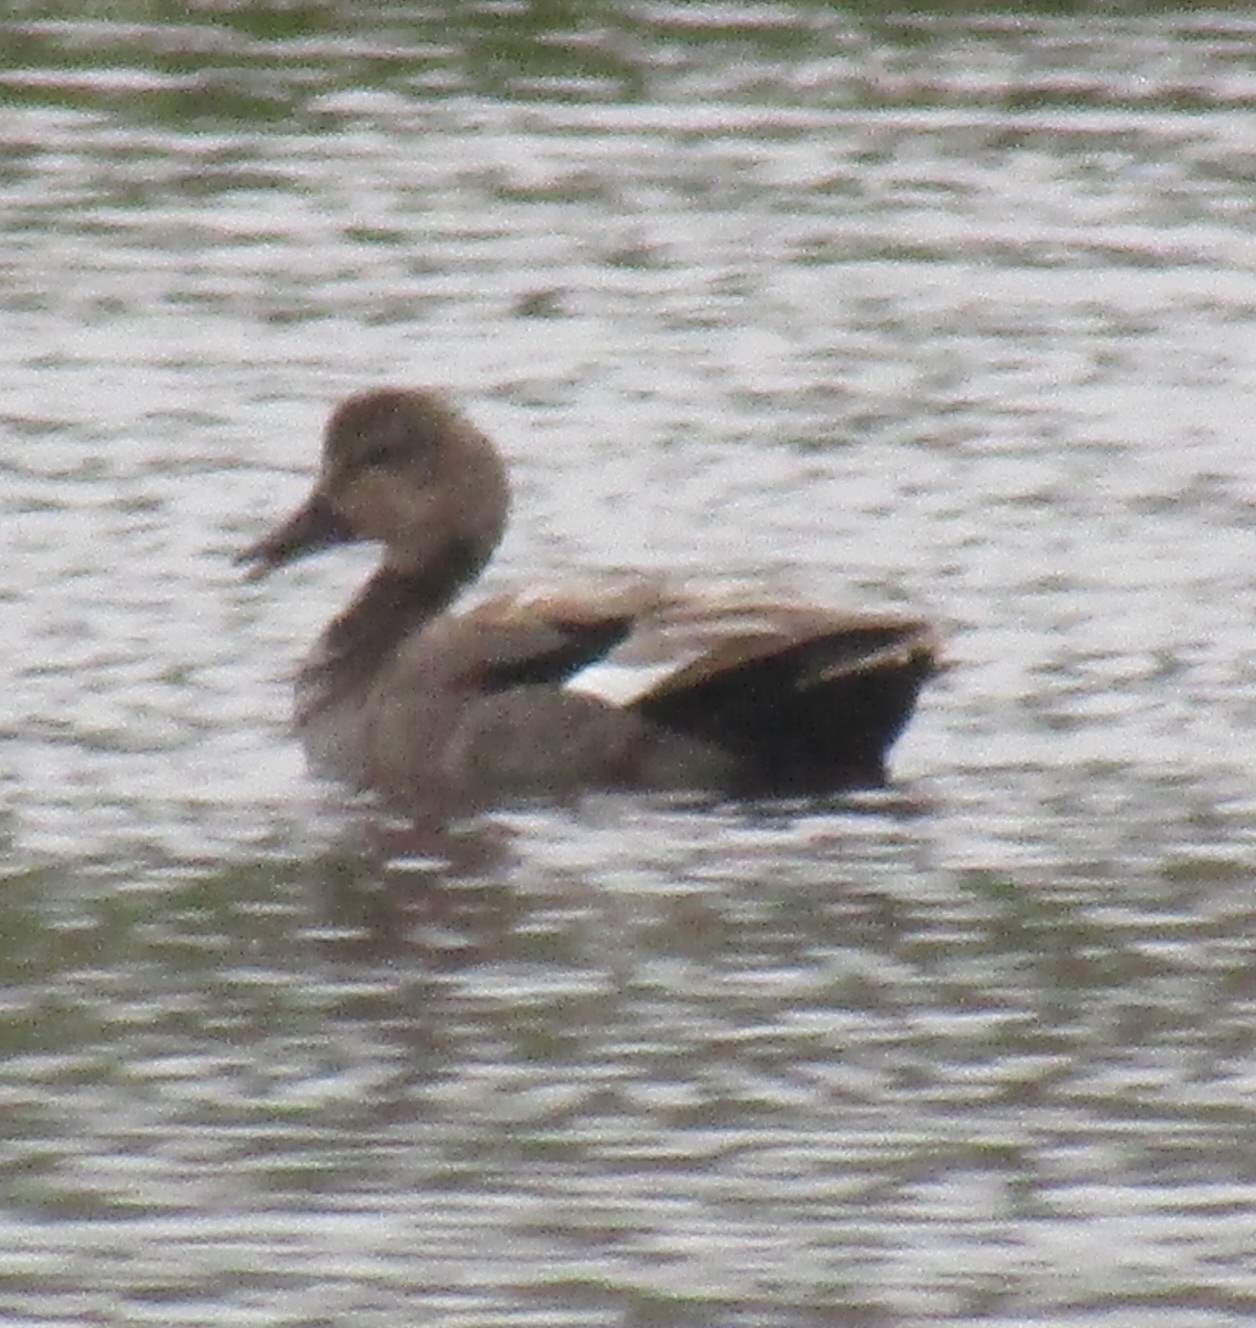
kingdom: Animalia
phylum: Chordata
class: Aves
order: Anseriformes
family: Anatidae
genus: Mareca
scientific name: Mareca strepera
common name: Gadwall
